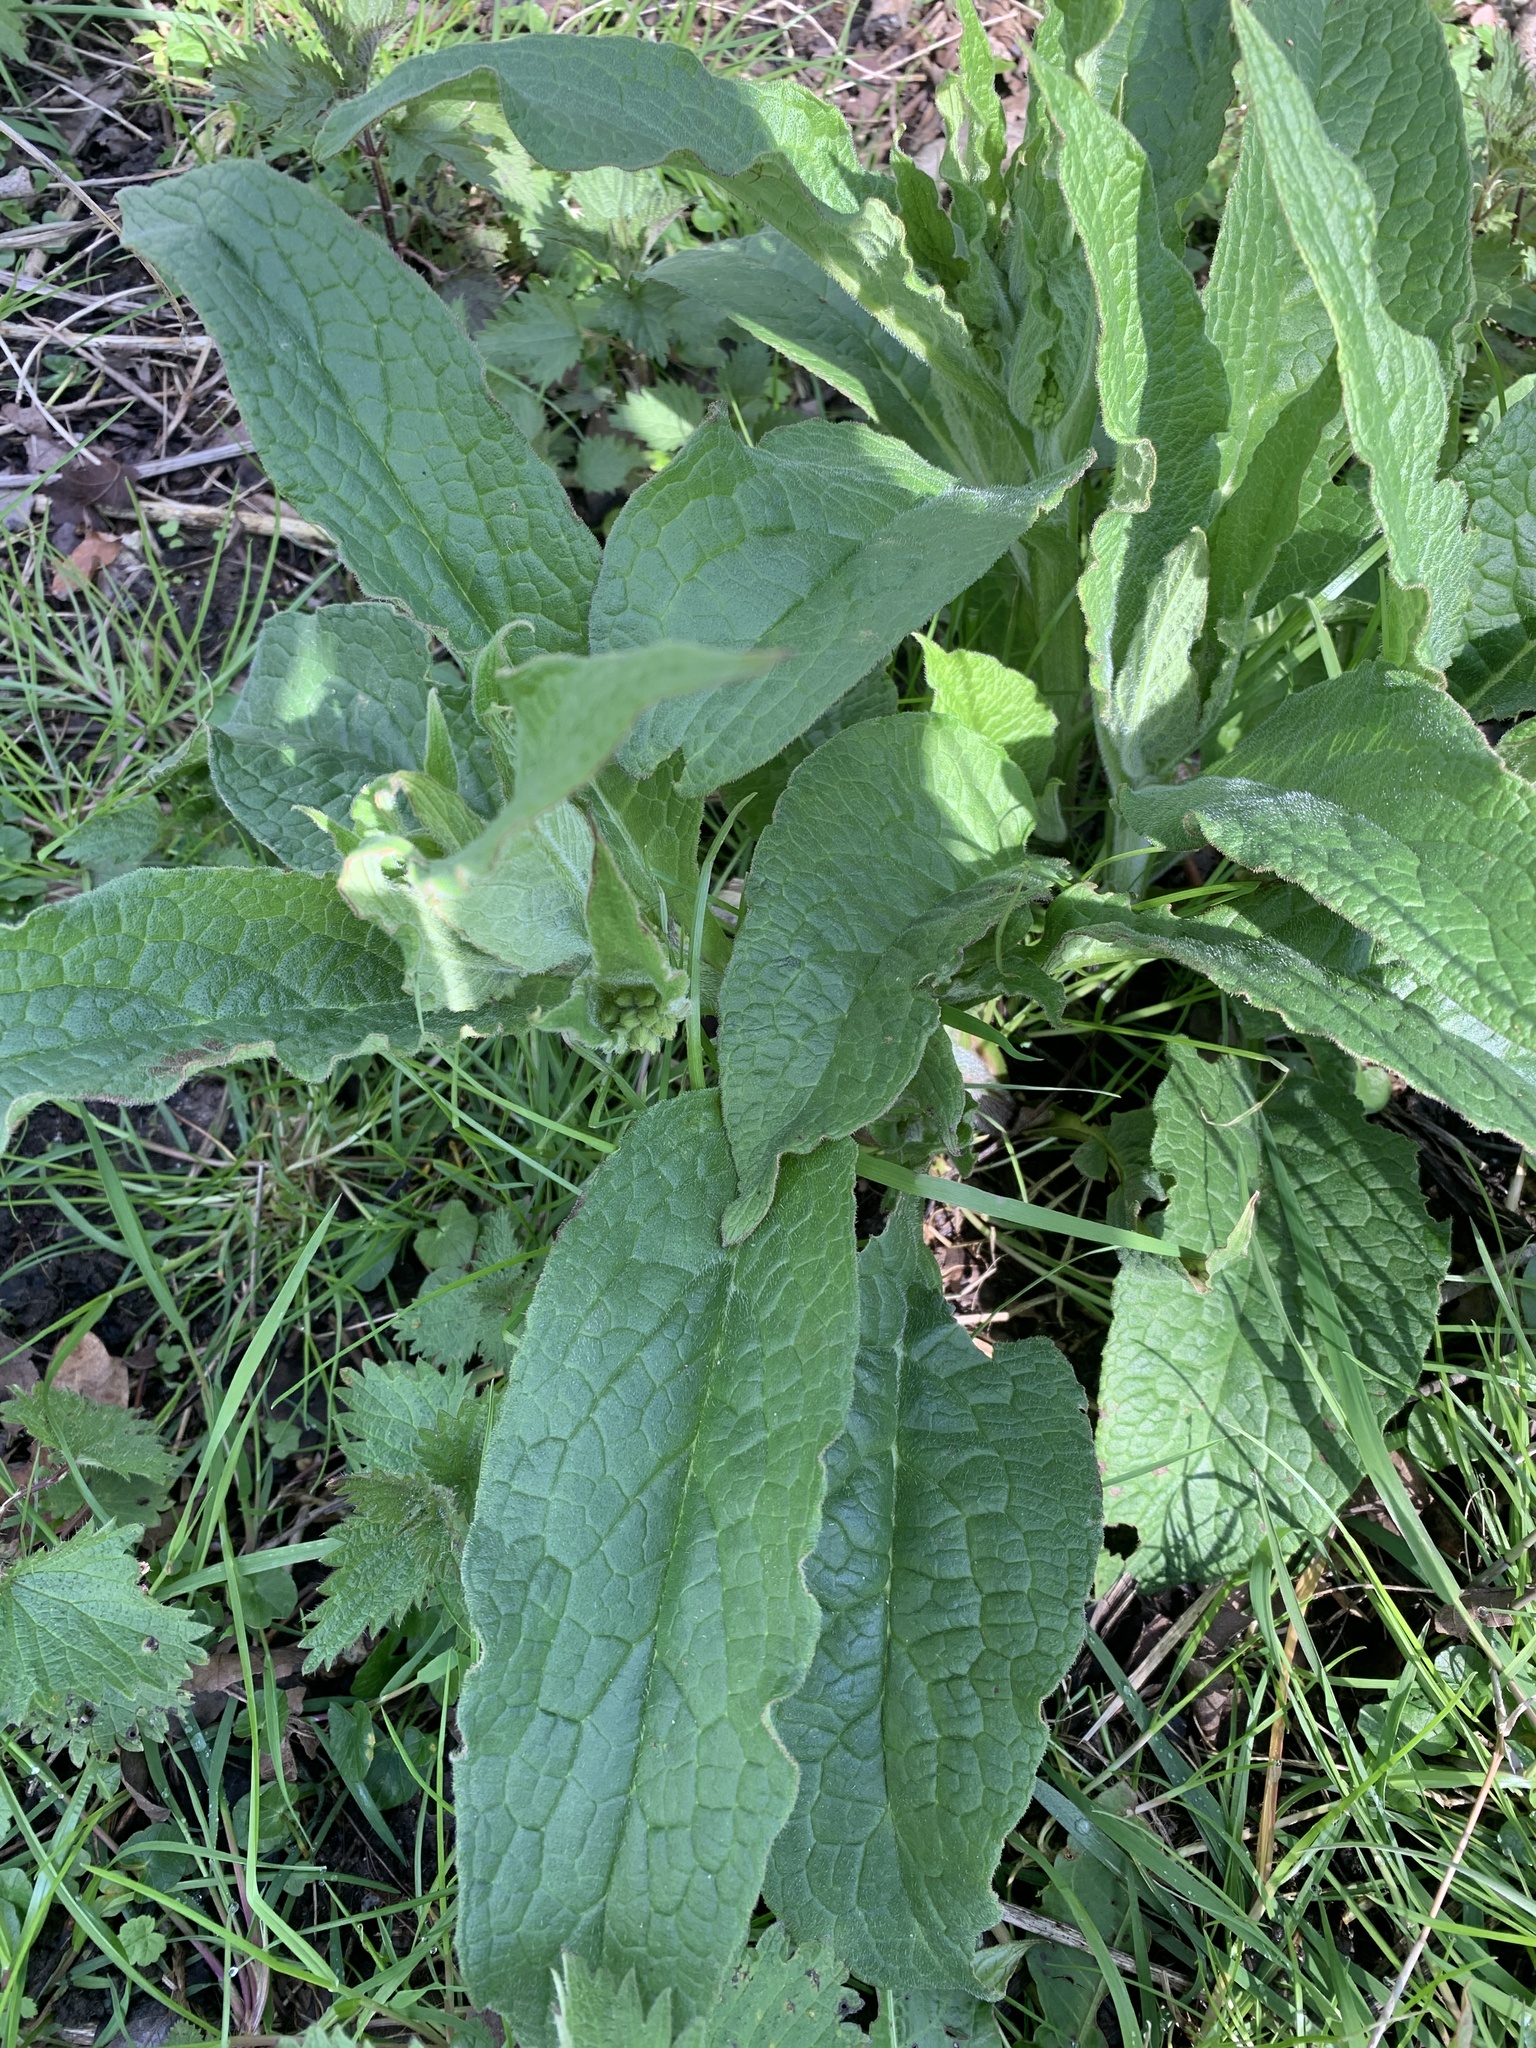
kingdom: Plantae
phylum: Tracheophyta
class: Magnoliopsida
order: Boraginales
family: Boraginaceae
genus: Symphytum
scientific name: Symphytum officinale
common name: Common comfrey
